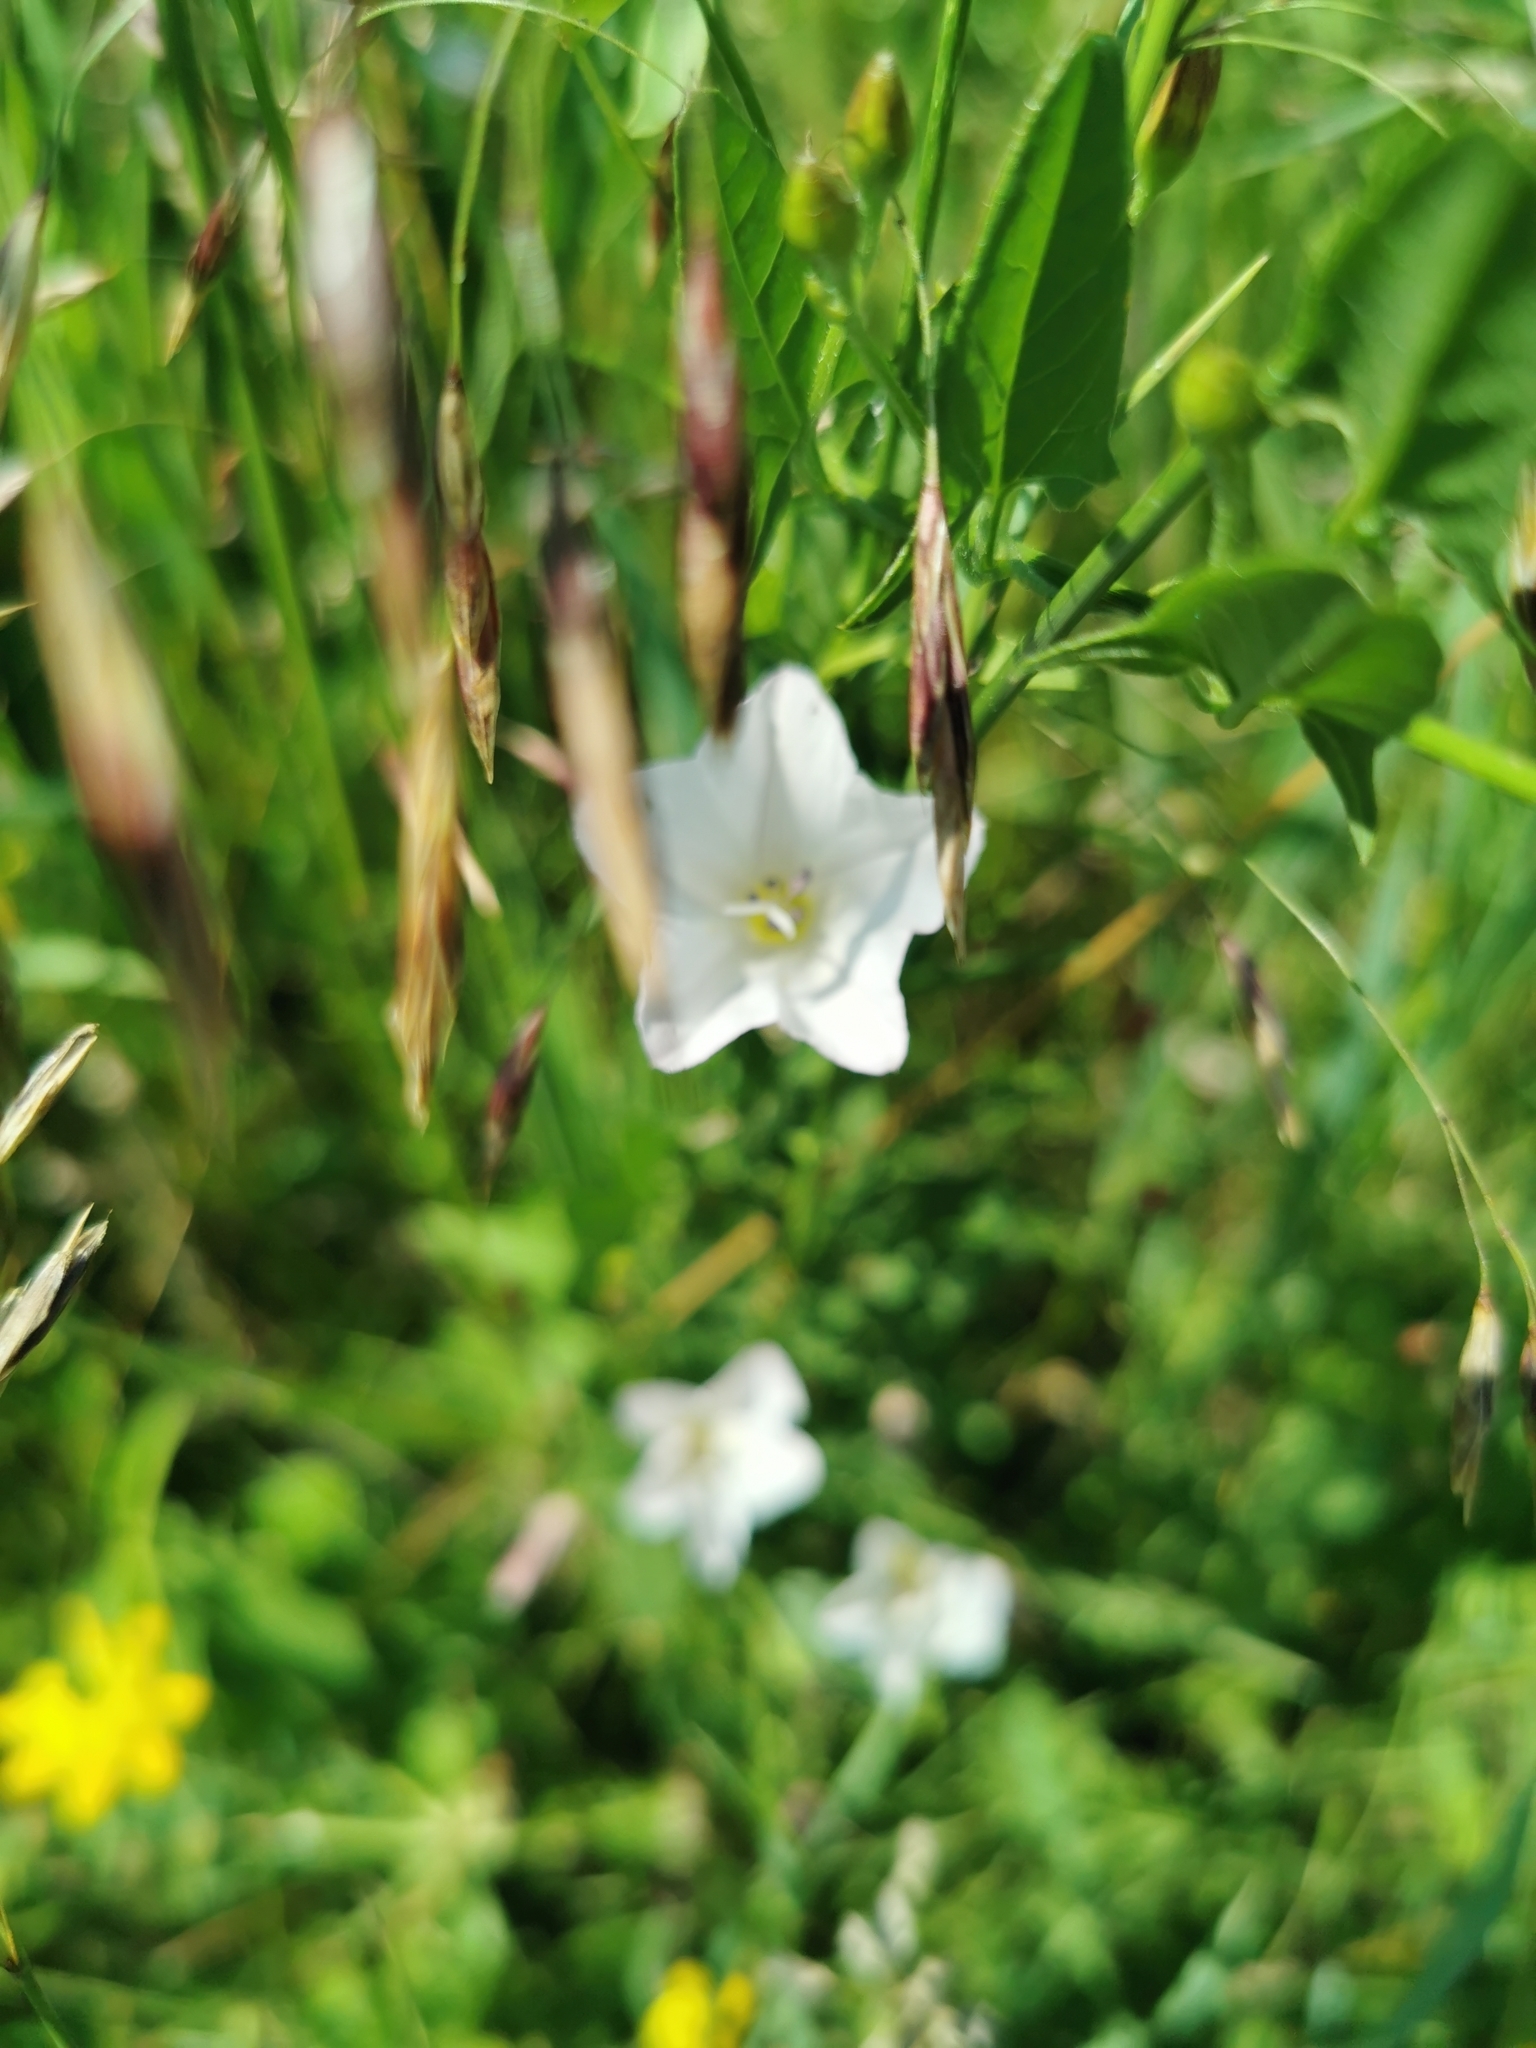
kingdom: Plantae
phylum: Tracheophyta
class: Magnoliopsida
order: Solanales
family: Convolvulaceae
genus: Convolvulus
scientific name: Convolvulus arvensis
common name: Field bindweed
